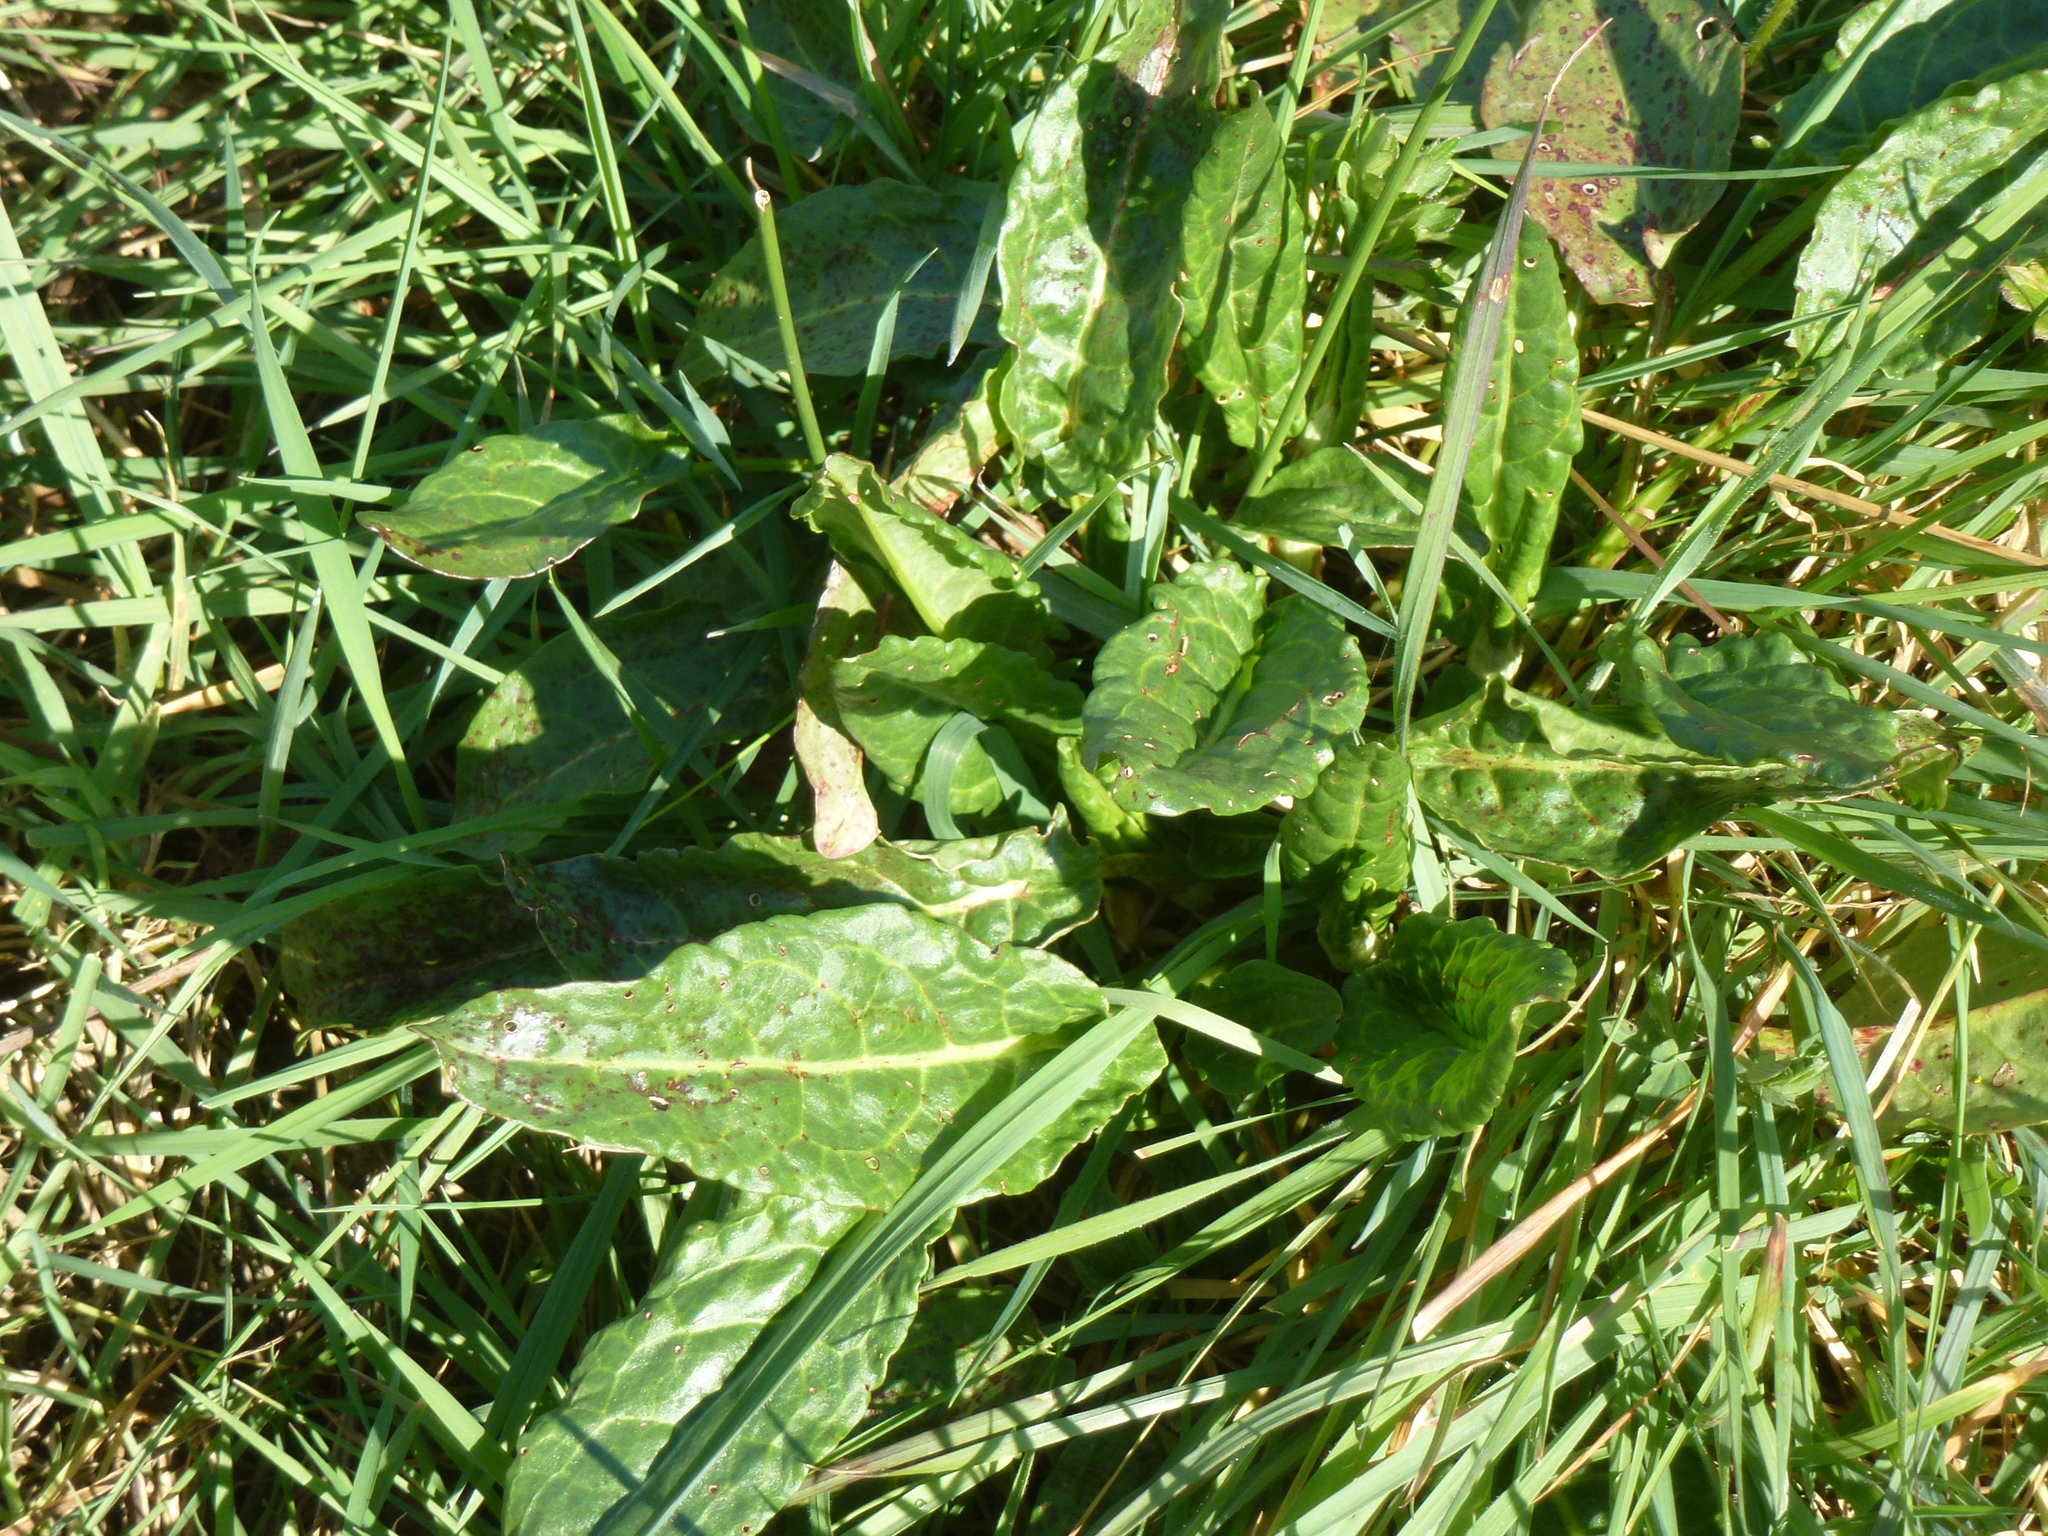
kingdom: Plantae
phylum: Tracheophyta
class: Magnoliopsida
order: Caryophyllales
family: Amaranthaceae
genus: Beta
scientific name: Beta vulgaris
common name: Beet
